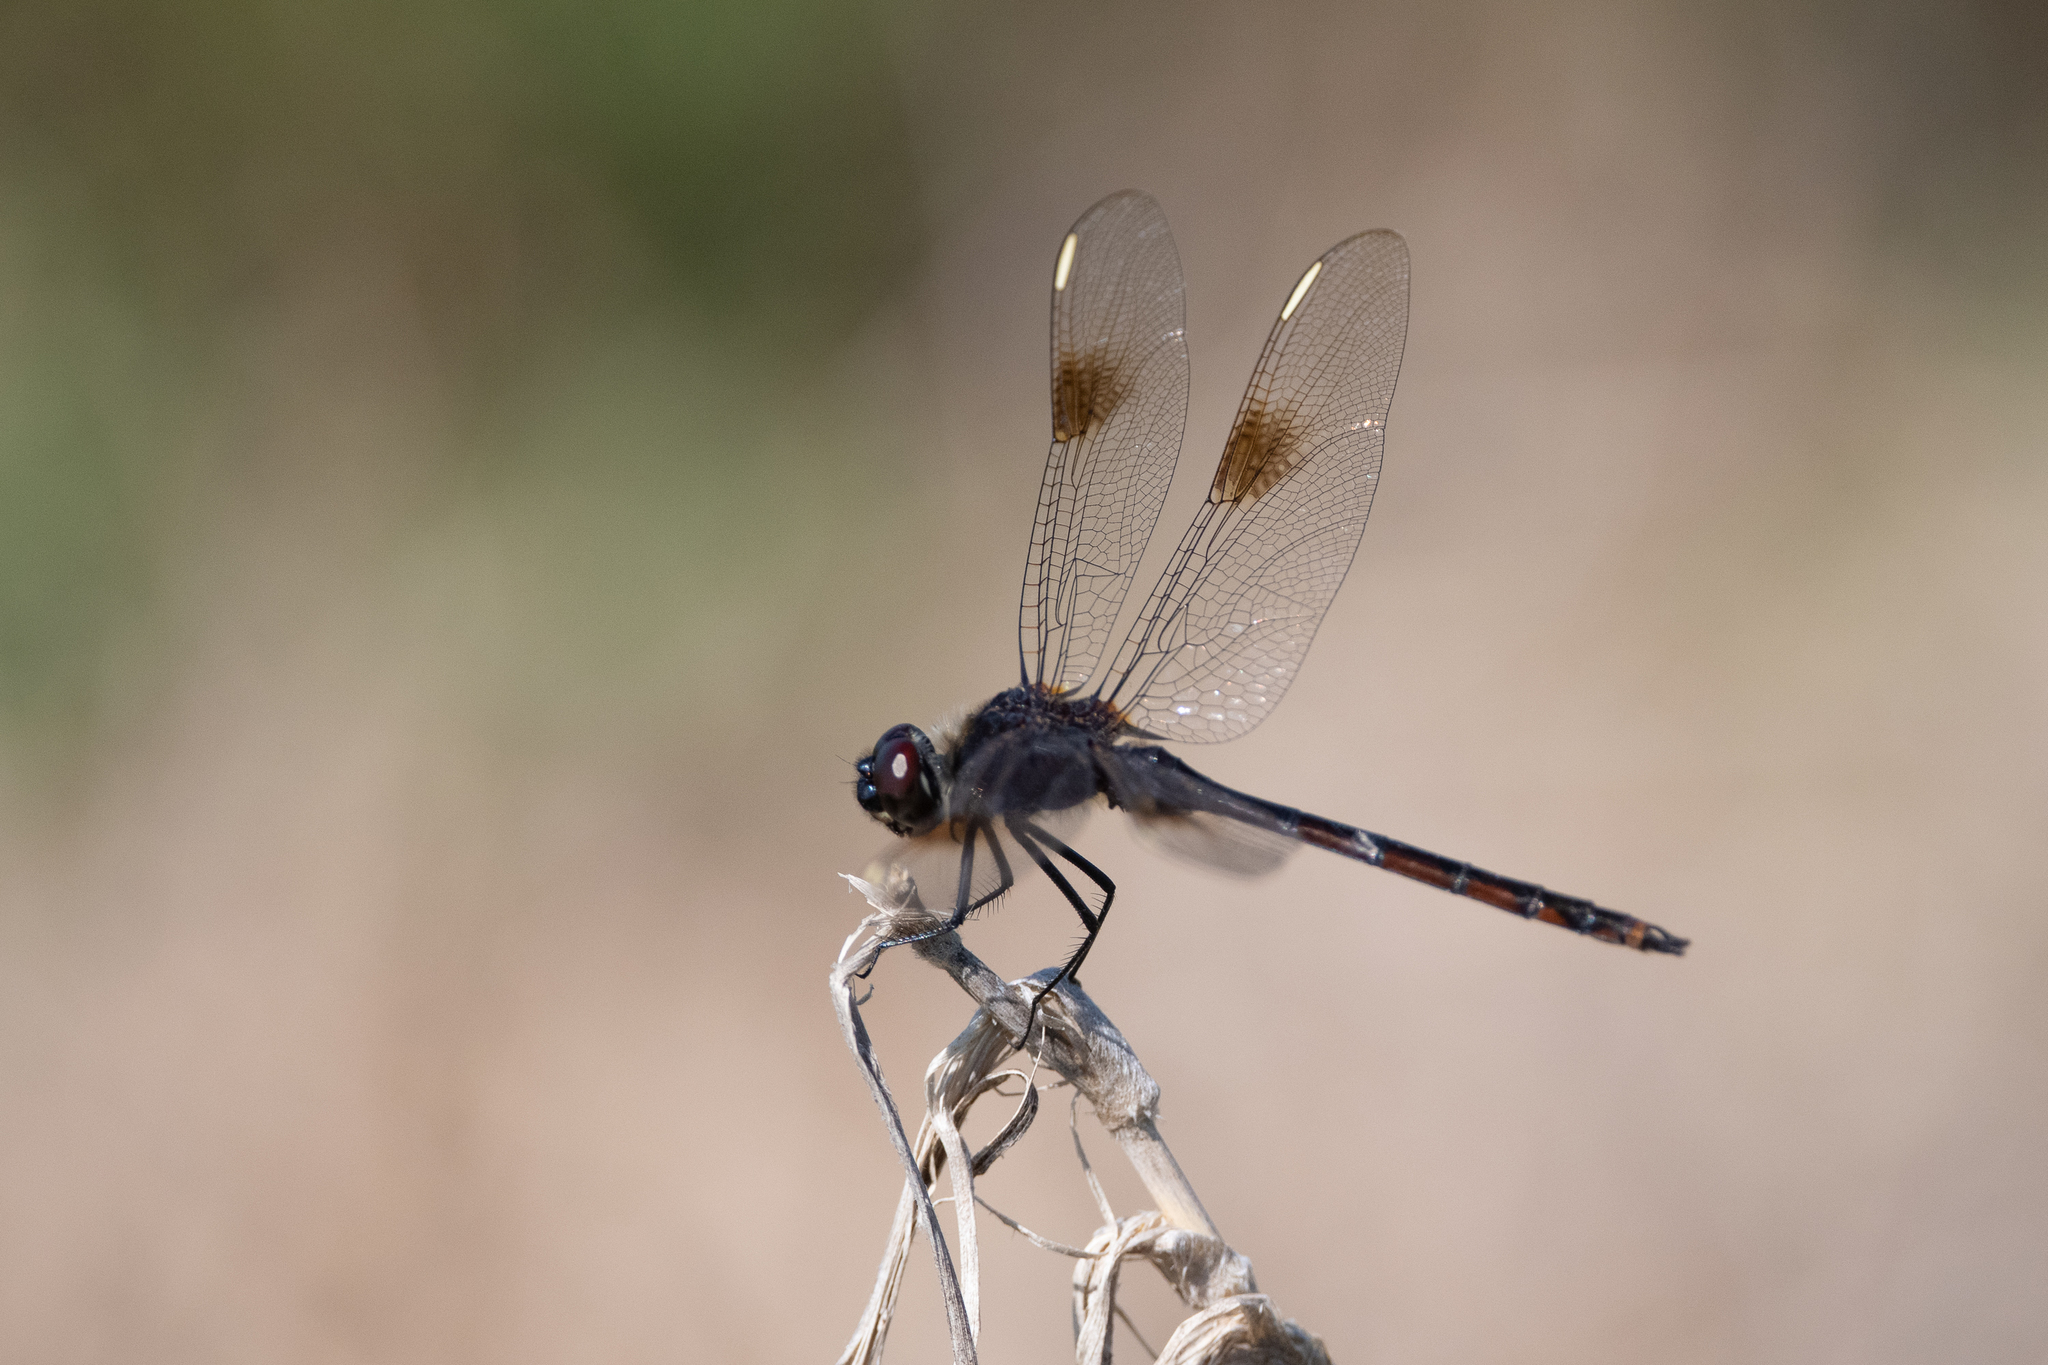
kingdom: Animalia
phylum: Arthropoda
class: Insecta
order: Odonata
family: Libellulidae
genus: Brachymesia
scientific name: Brachymesia gravida
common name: Four-spotted pennant
